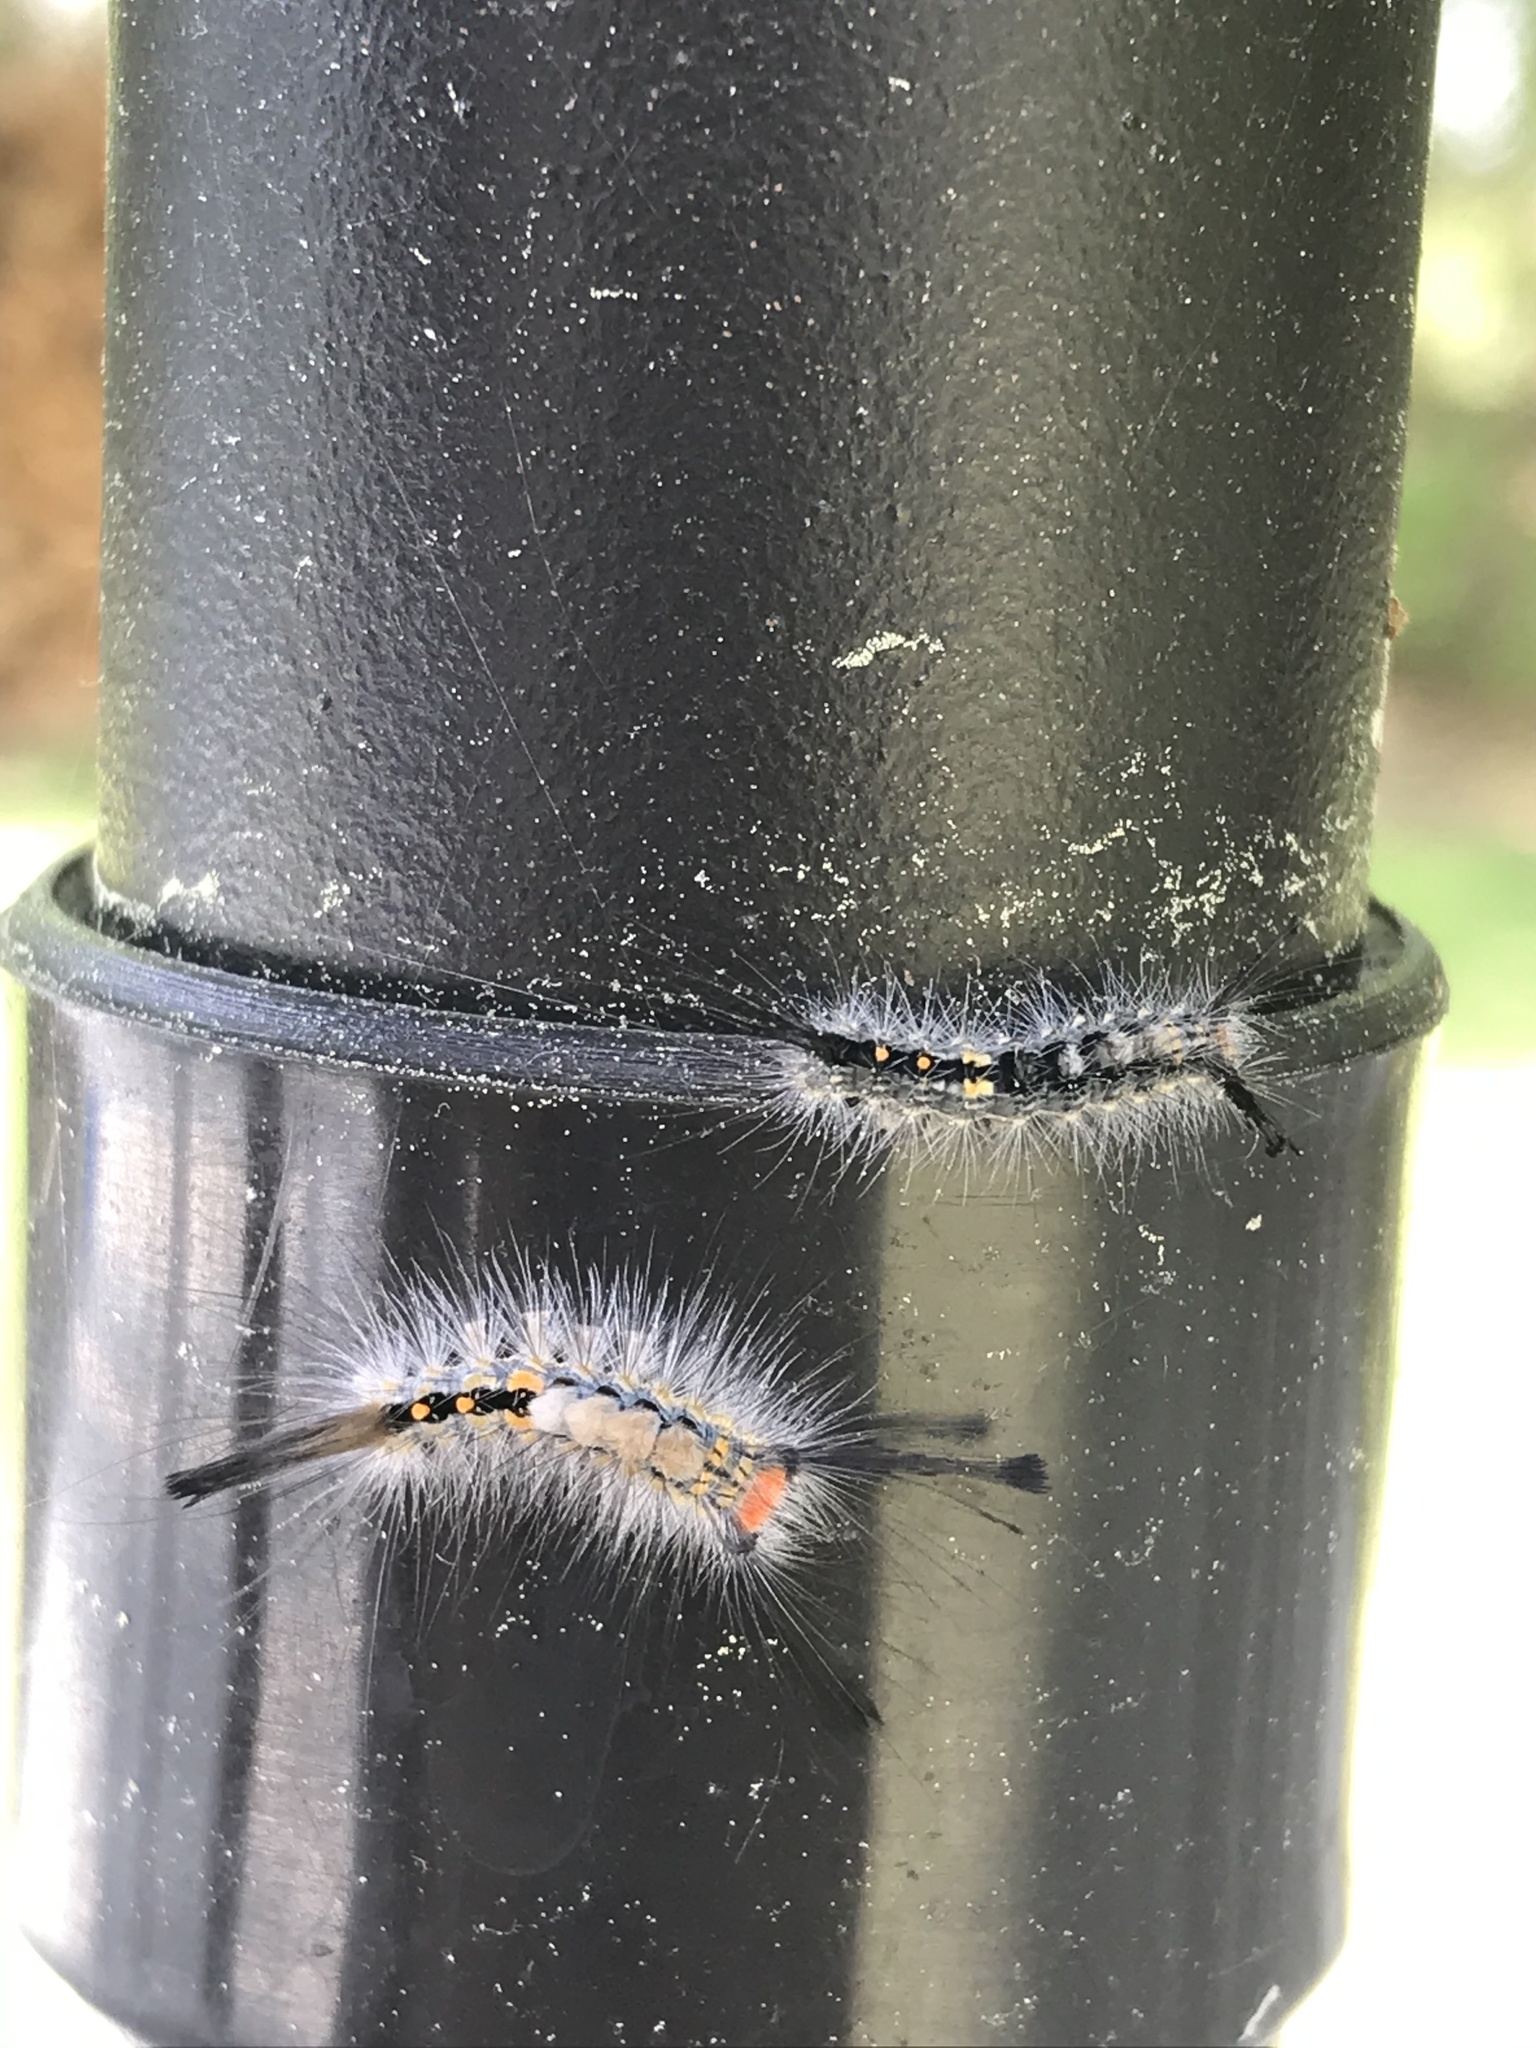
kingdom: Animalia
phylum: Arthropoda
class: Insecta
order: Lepidoptera
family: Erebidae
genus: Orgyia
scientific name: Orgyia detrita
